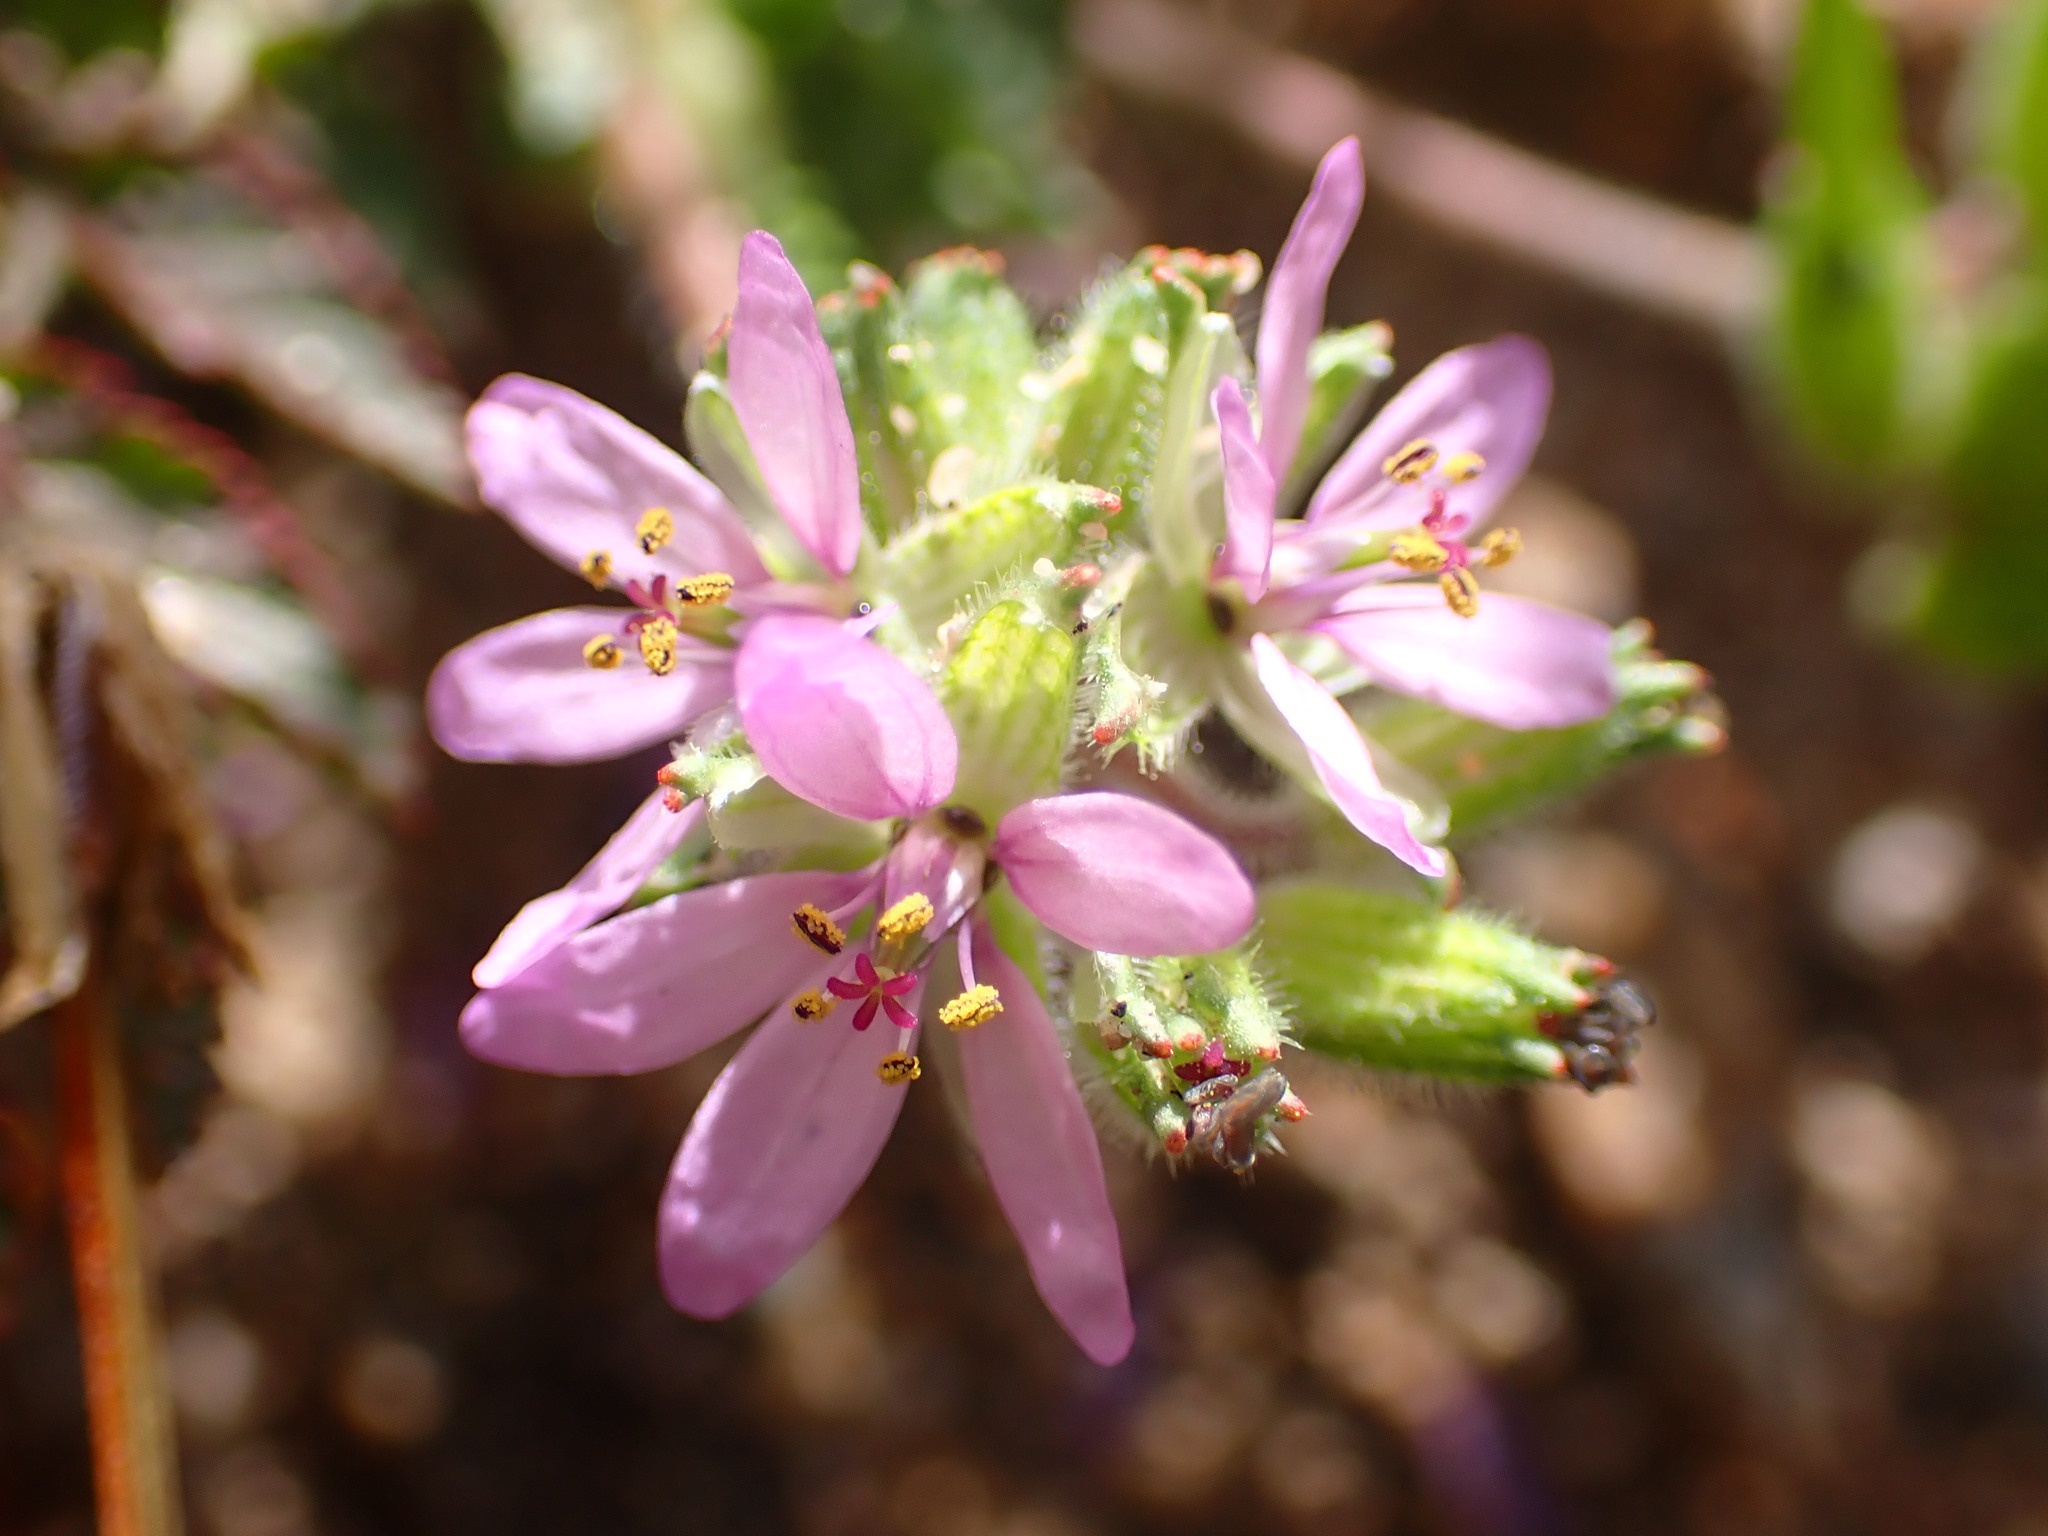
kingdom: Plantae
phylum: Tracheophyta
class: Magnoliopsida
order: Geraniales
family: Geraniaceae
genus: Erodium
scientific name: Erodium moschatum
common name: Musk stork's-bill
